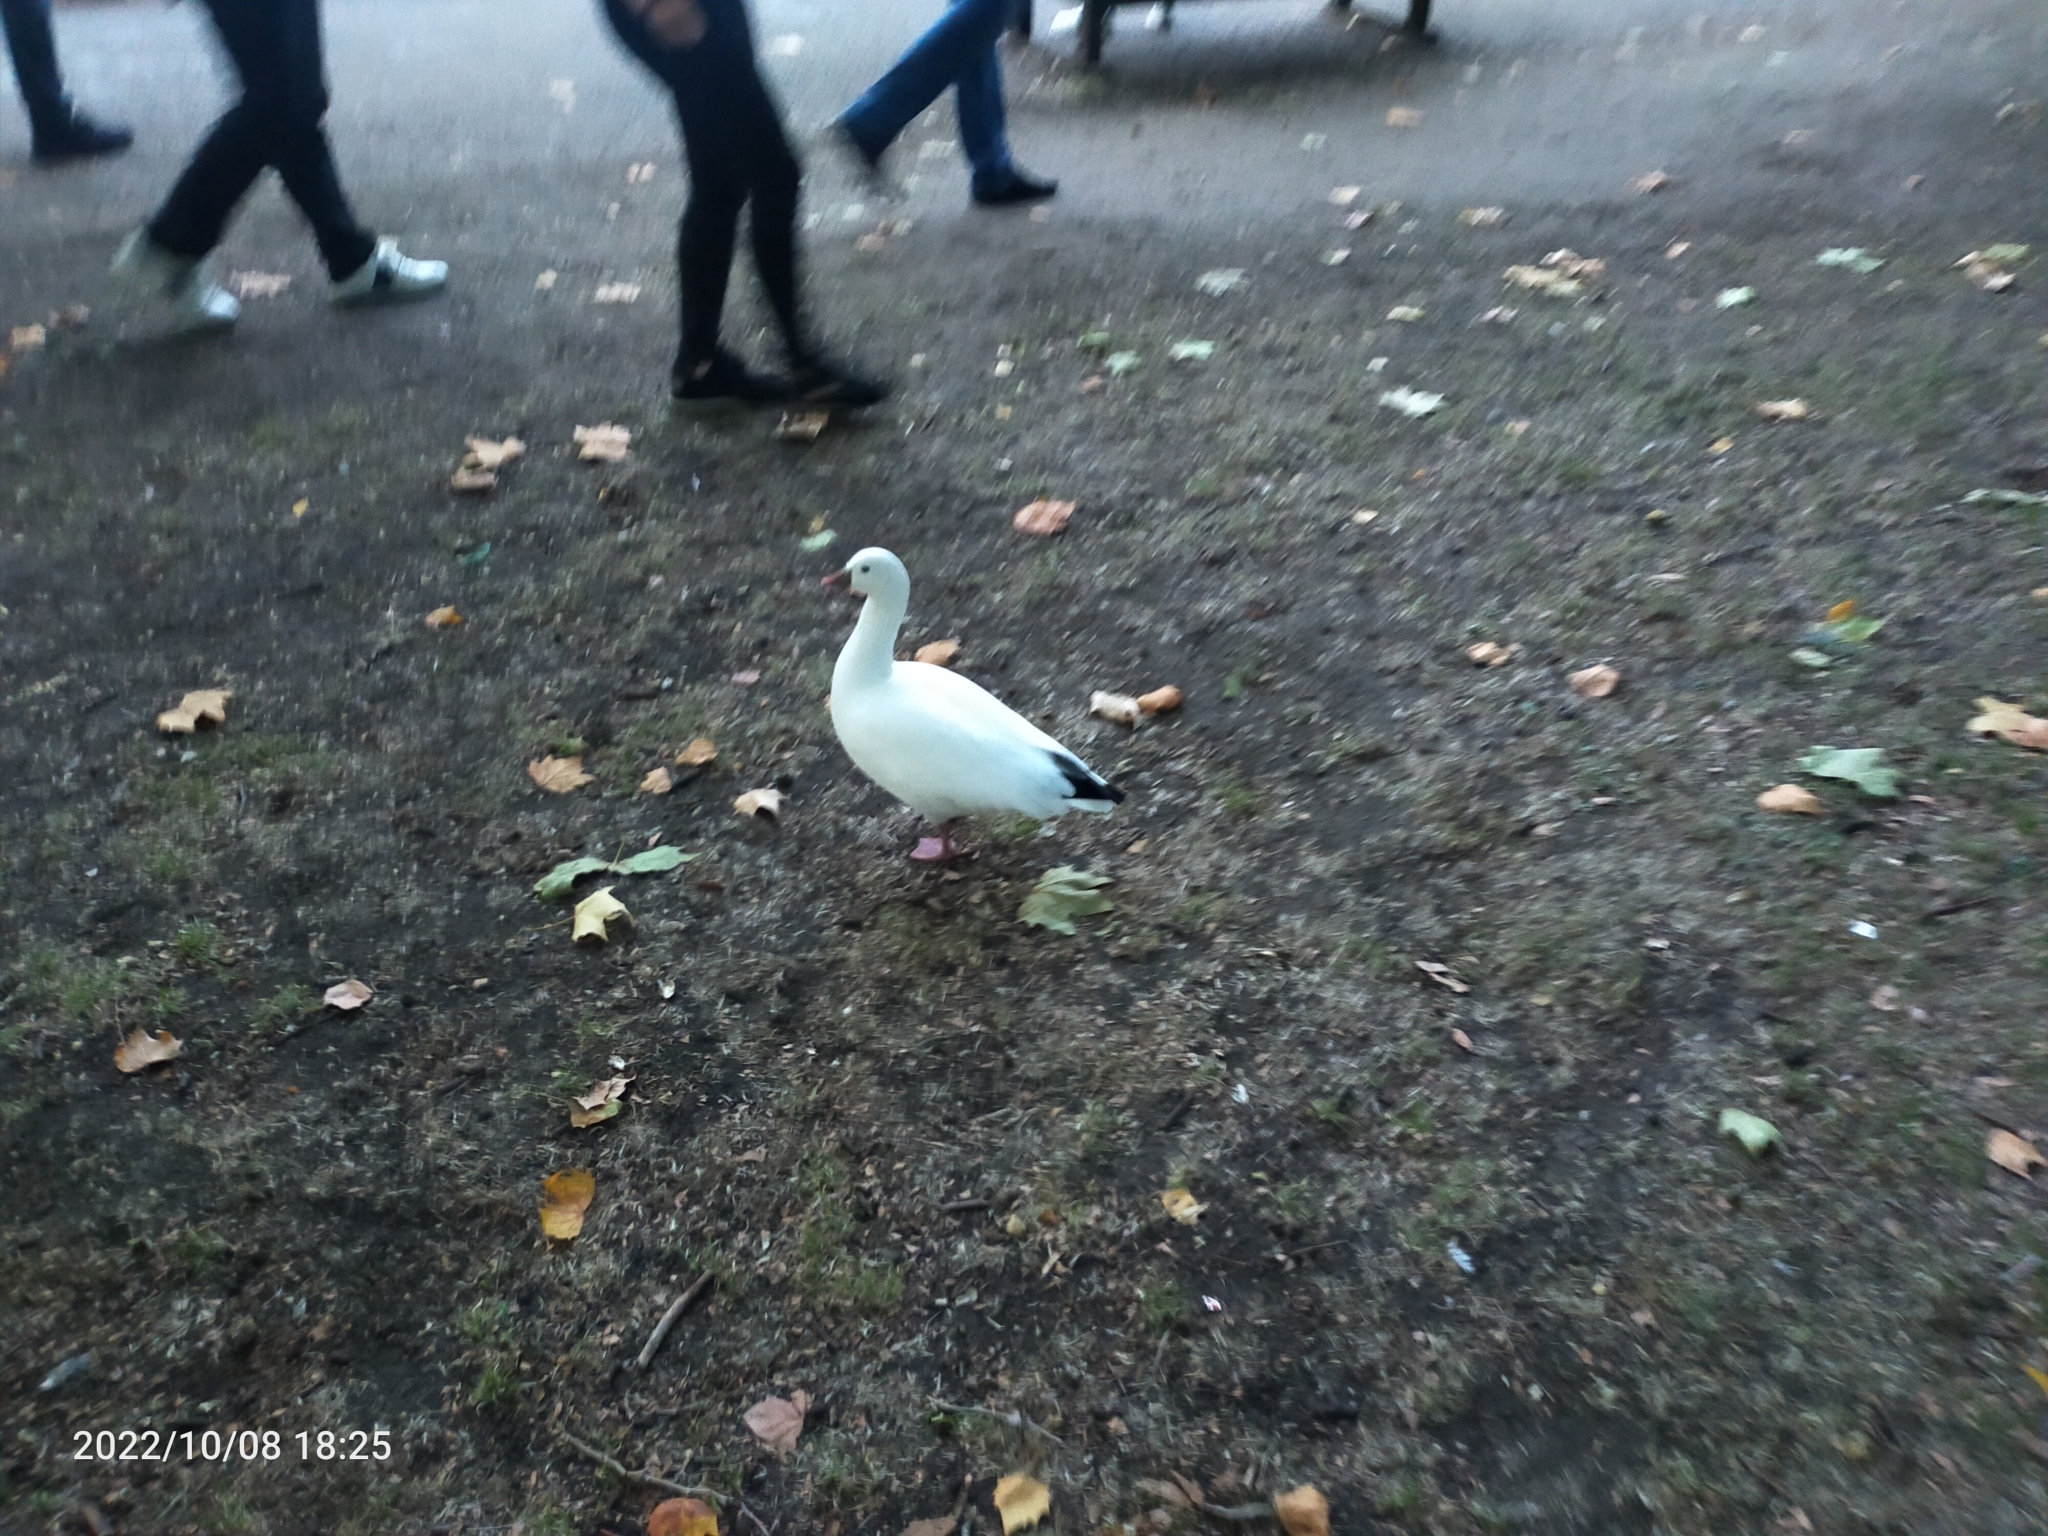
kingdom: Animalia
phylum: Chordata
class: Aves
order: Anseriformes
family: Anatidae
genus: Anser
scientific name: Anser rossii
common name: Ross's goose
